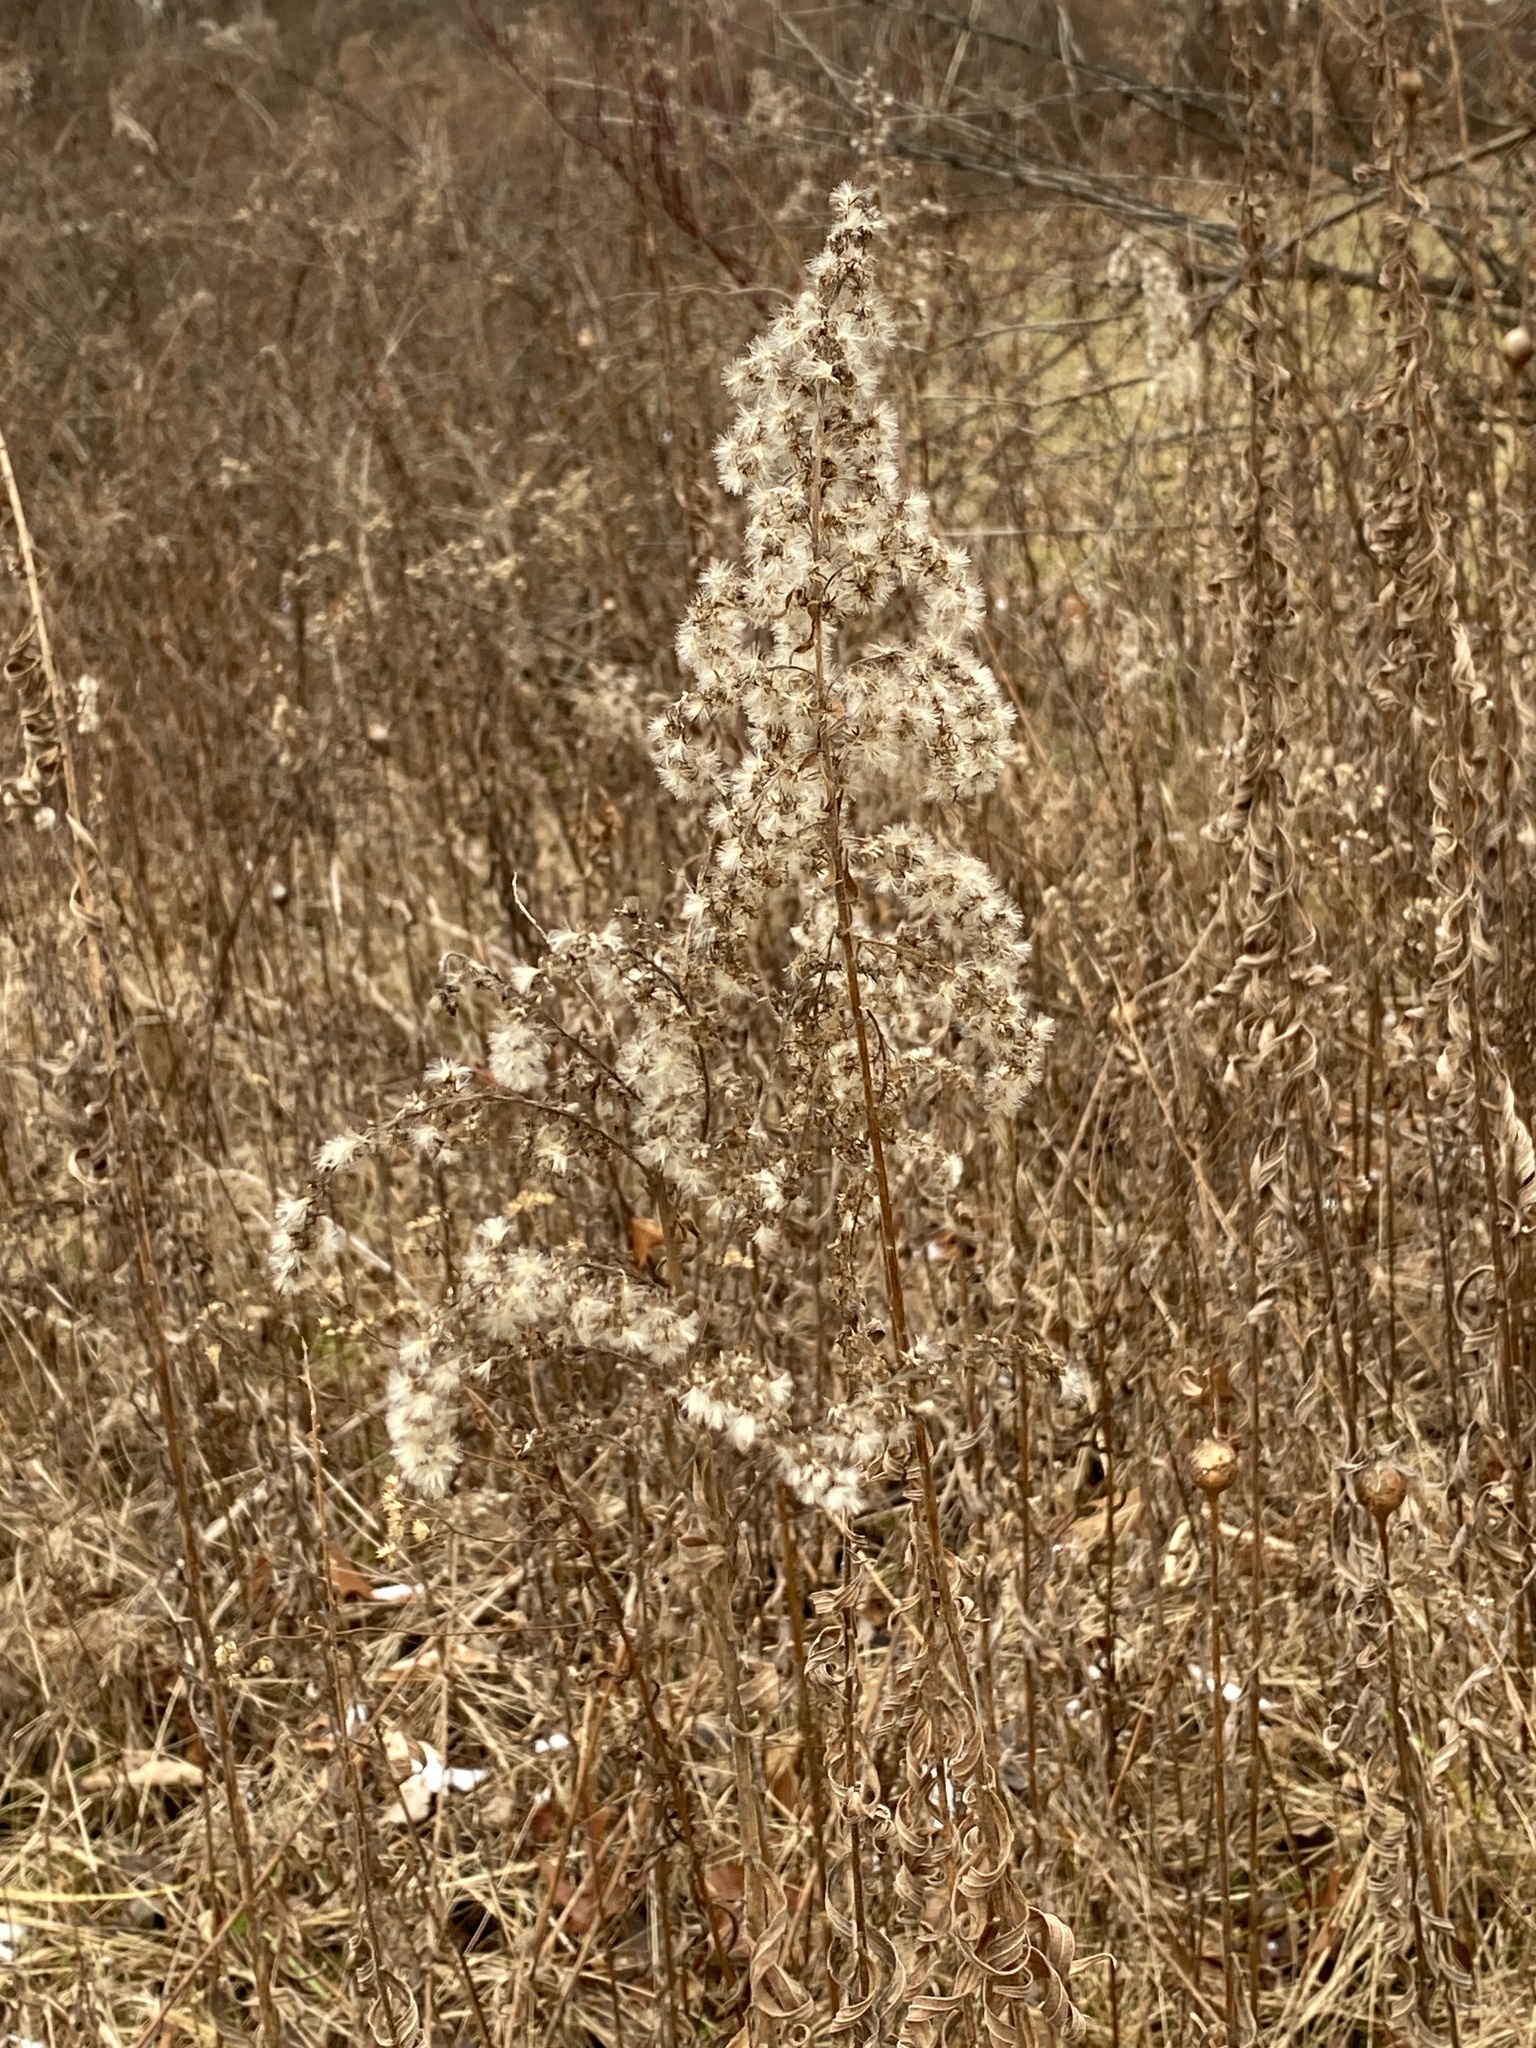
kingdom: Plantae
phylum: Tracheophyta
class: Magnoliopsida
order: Asterales
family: Asteraceae
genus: Solidago
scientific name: Solidago altissima
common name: Late goldenrod
